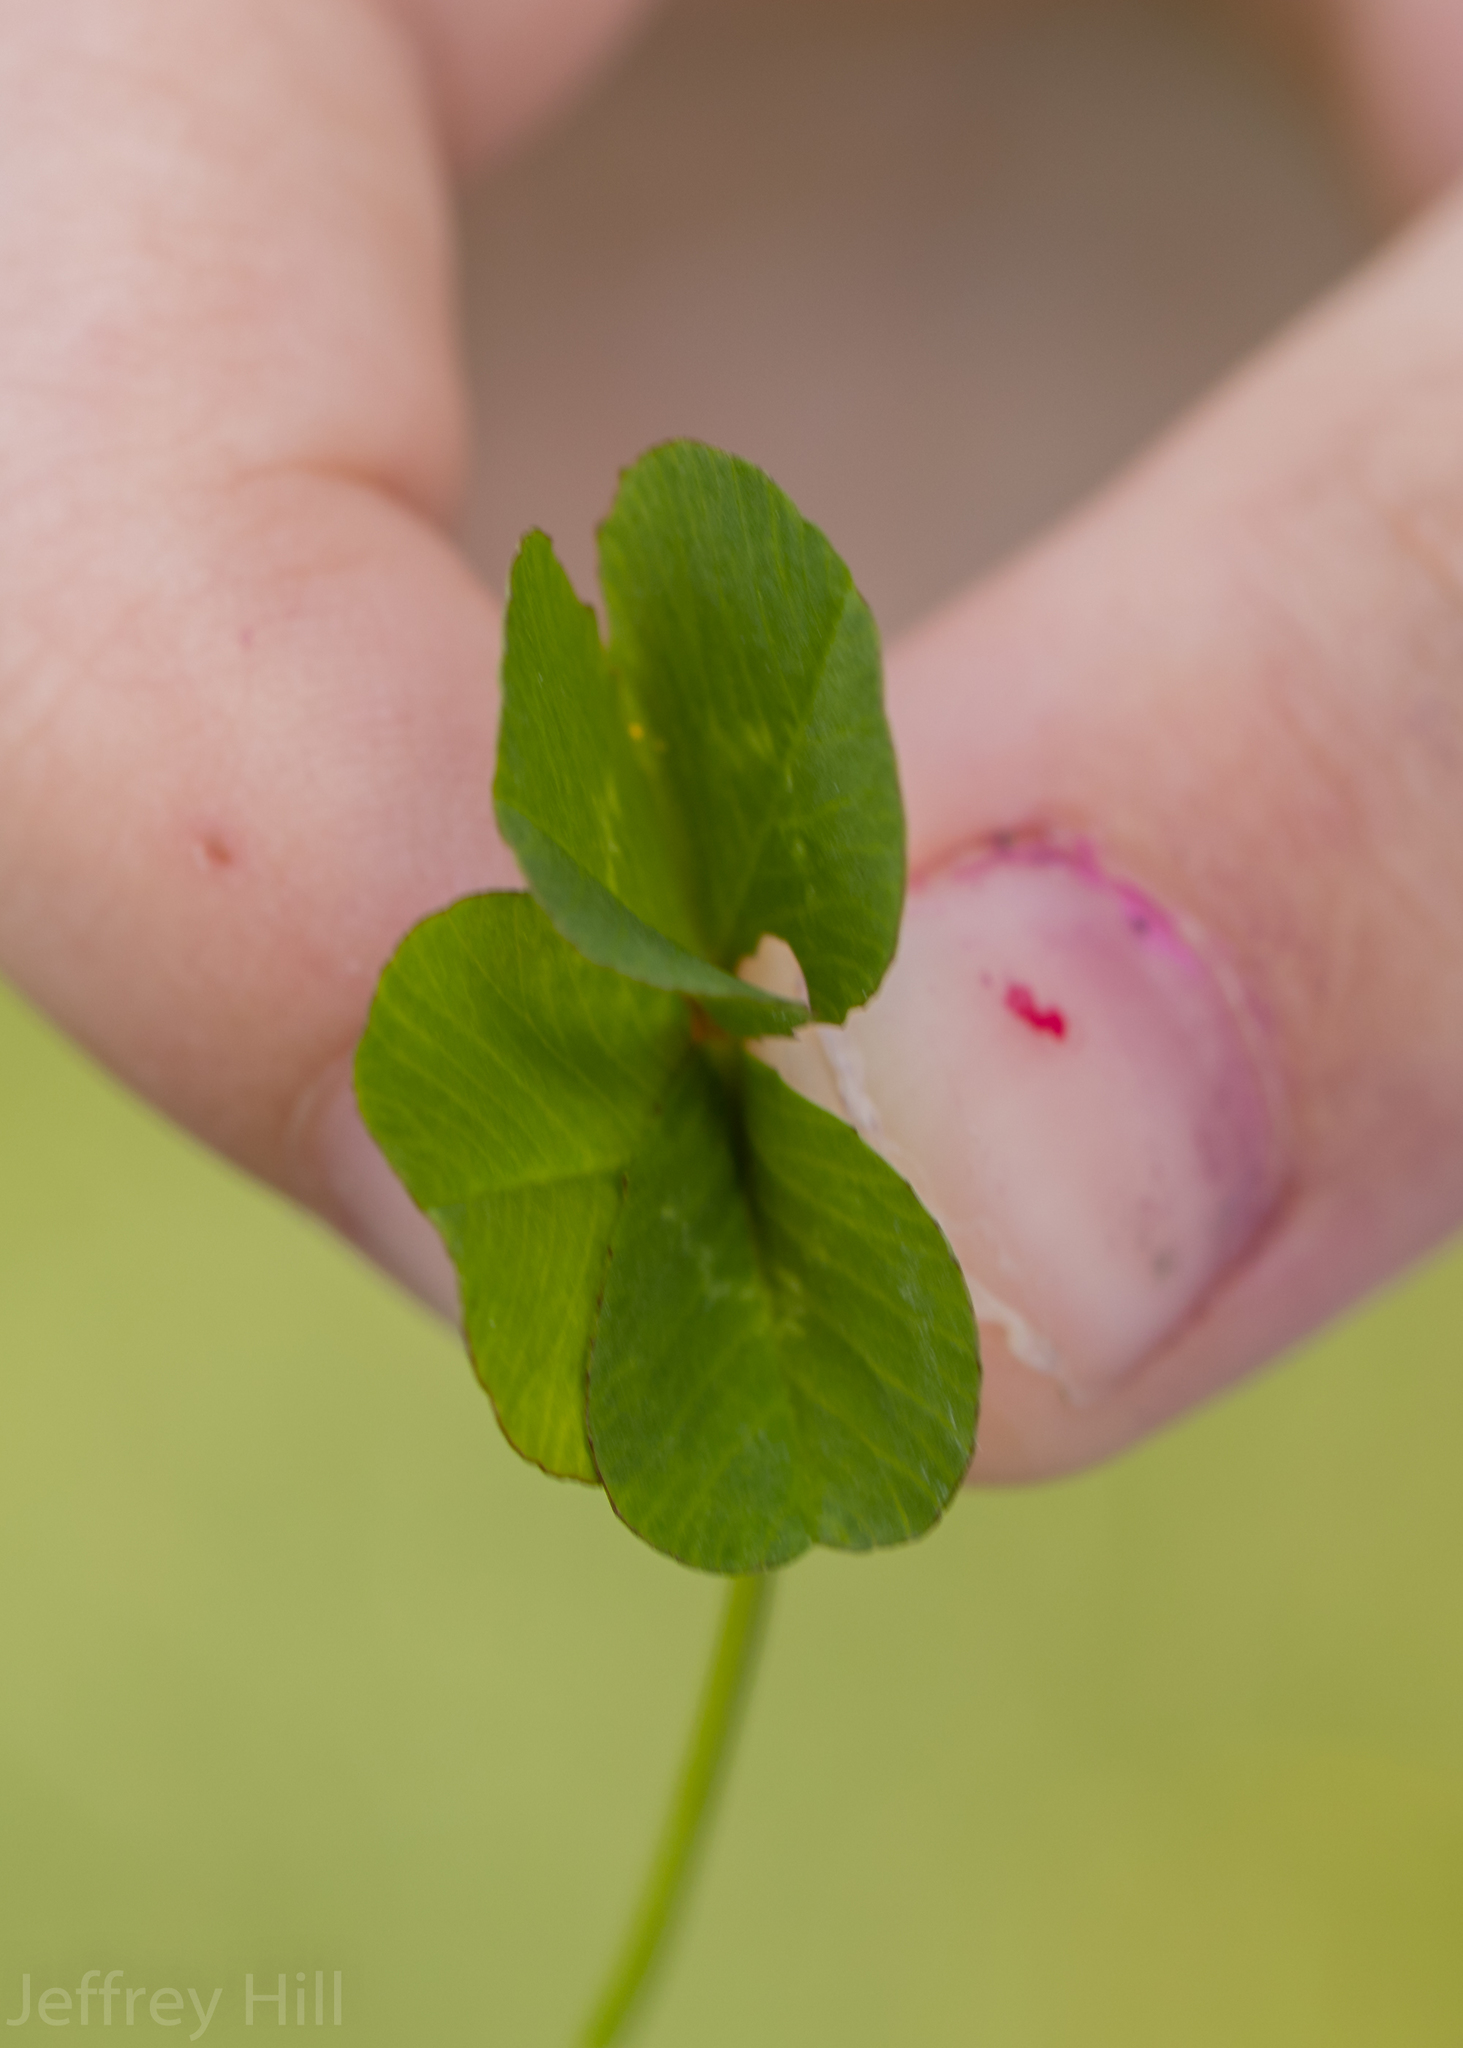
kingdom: Plantae
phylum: Tracheophyta
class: Magnoliopsida
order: Fabales
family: Fabaceae
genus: Trifolium
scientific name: Trifolium repens
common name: White clover
